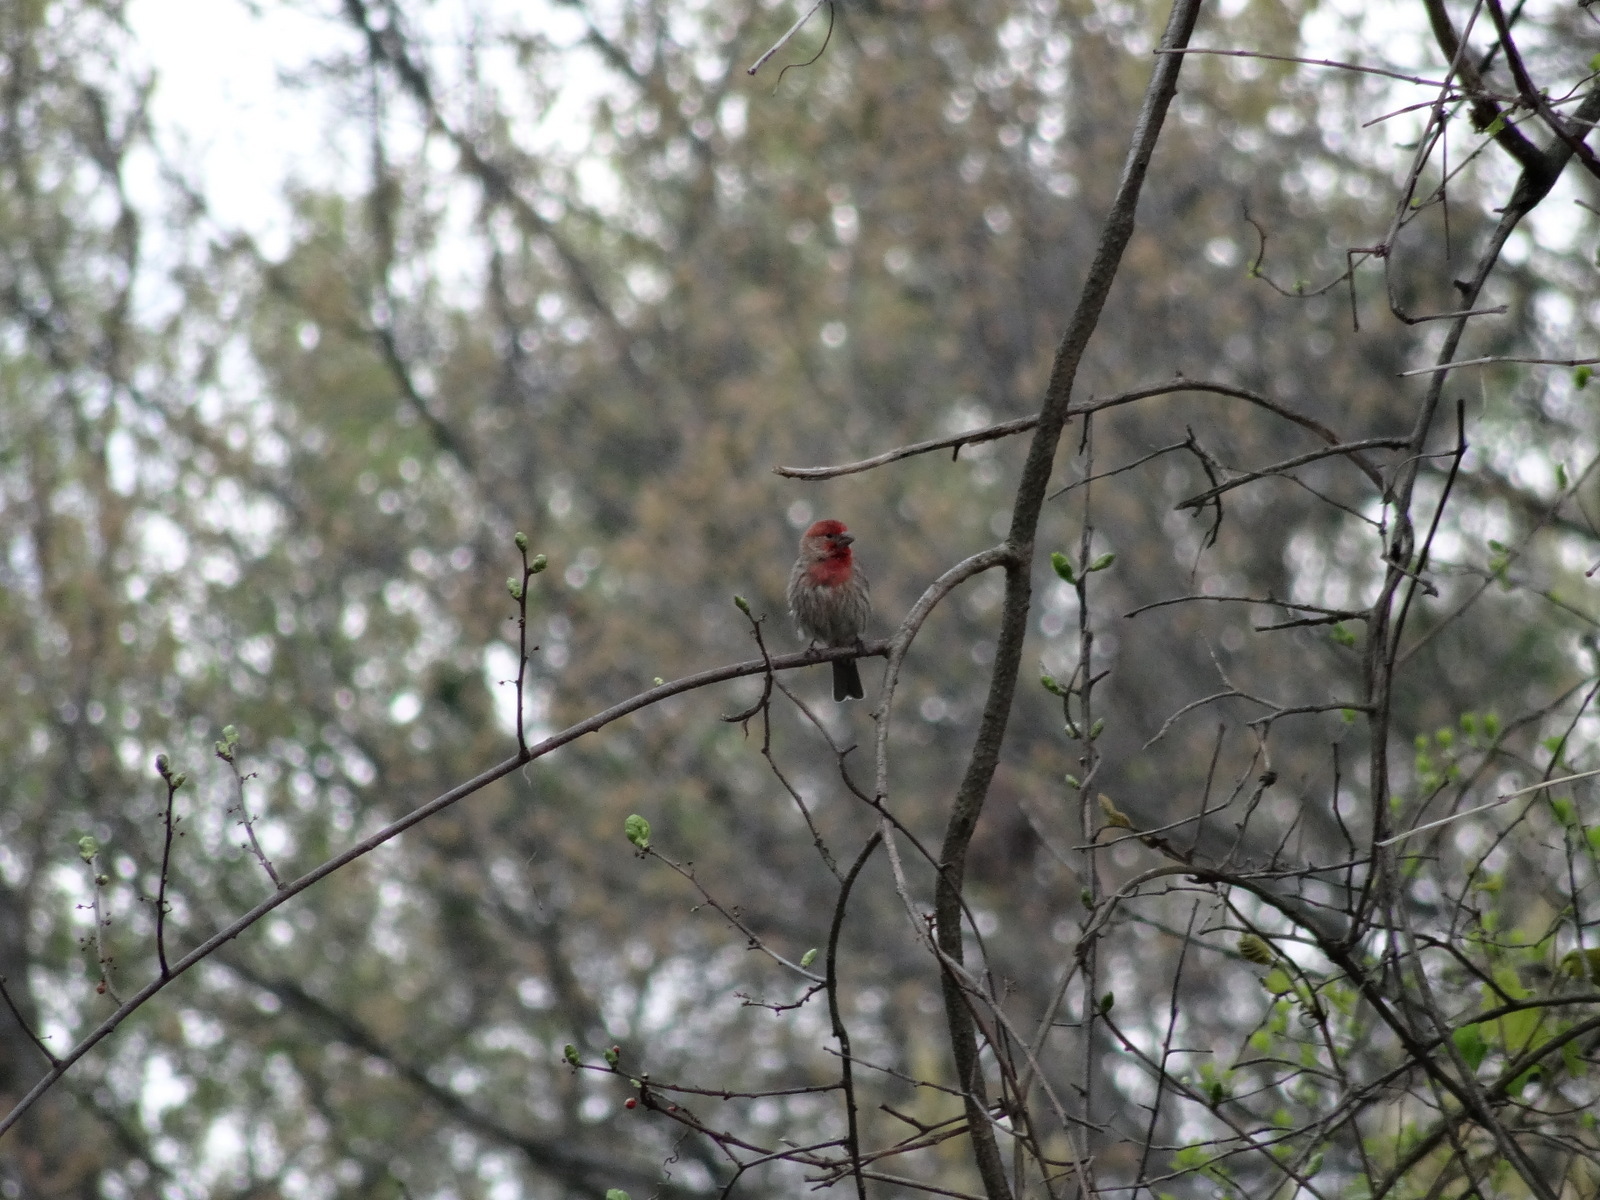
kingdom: Animalia
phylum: Chordata
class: Aves
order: Passeriformes
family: Fringillidae
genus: Haemorhous
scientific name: Haemorhous mexicanus
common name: House finch
